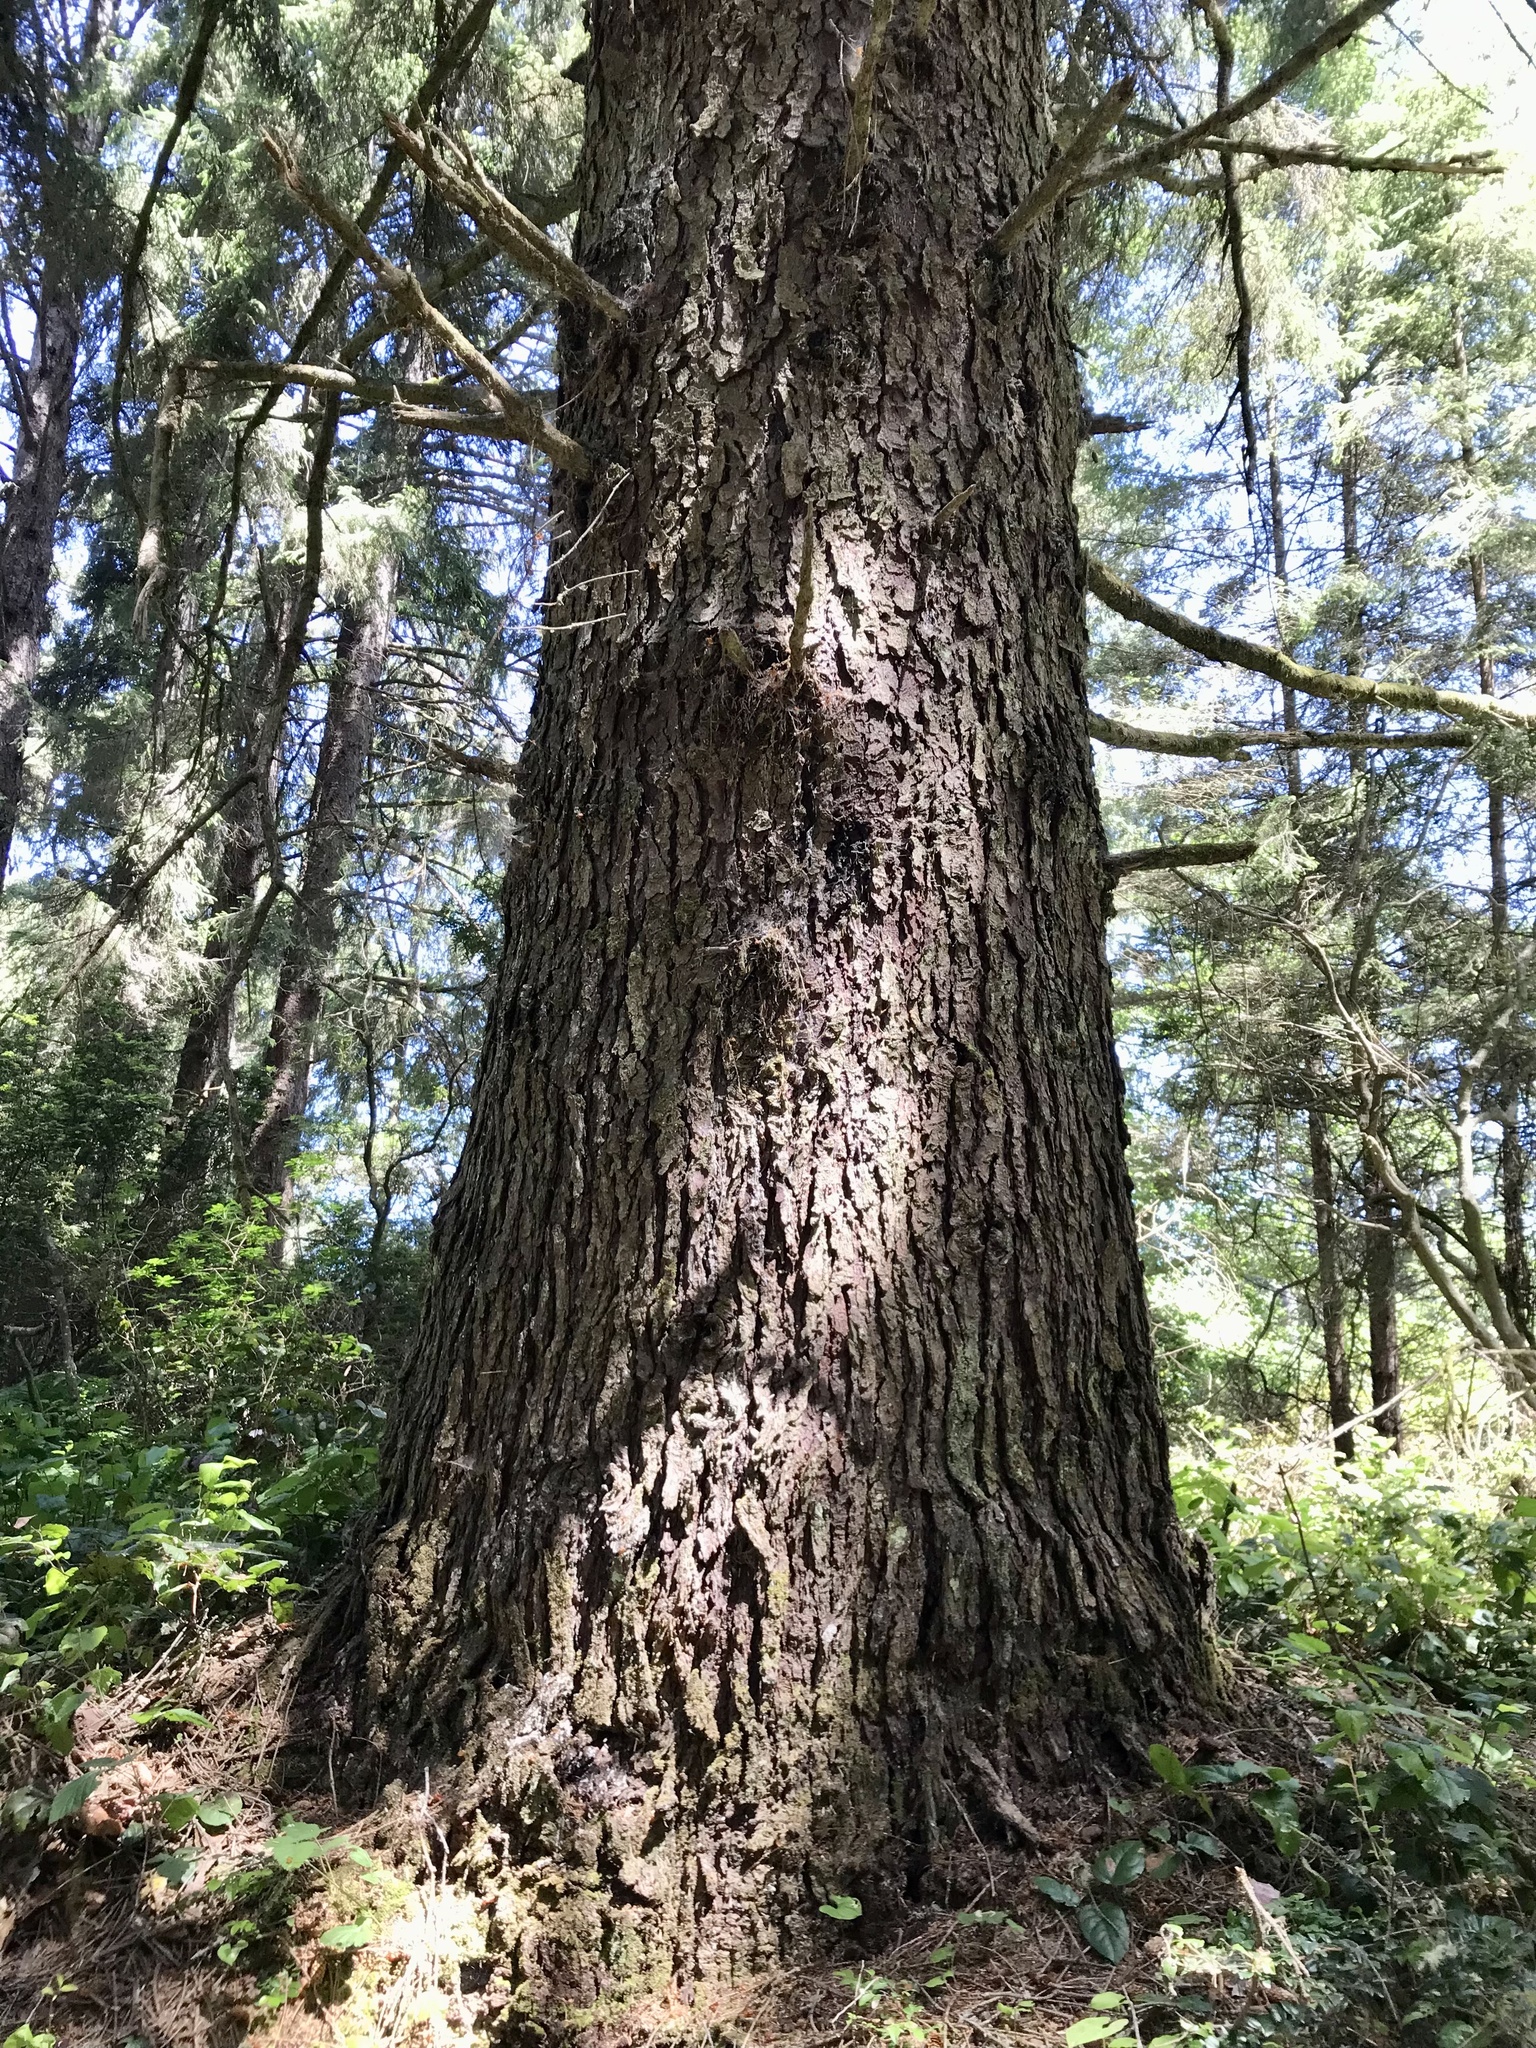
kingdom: Plantae
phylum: Tracheophyta
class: Pinopsida
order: Pinales
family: Pinaceae
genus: Picea
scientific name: Picea sitchensis
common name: Sitka spruce
